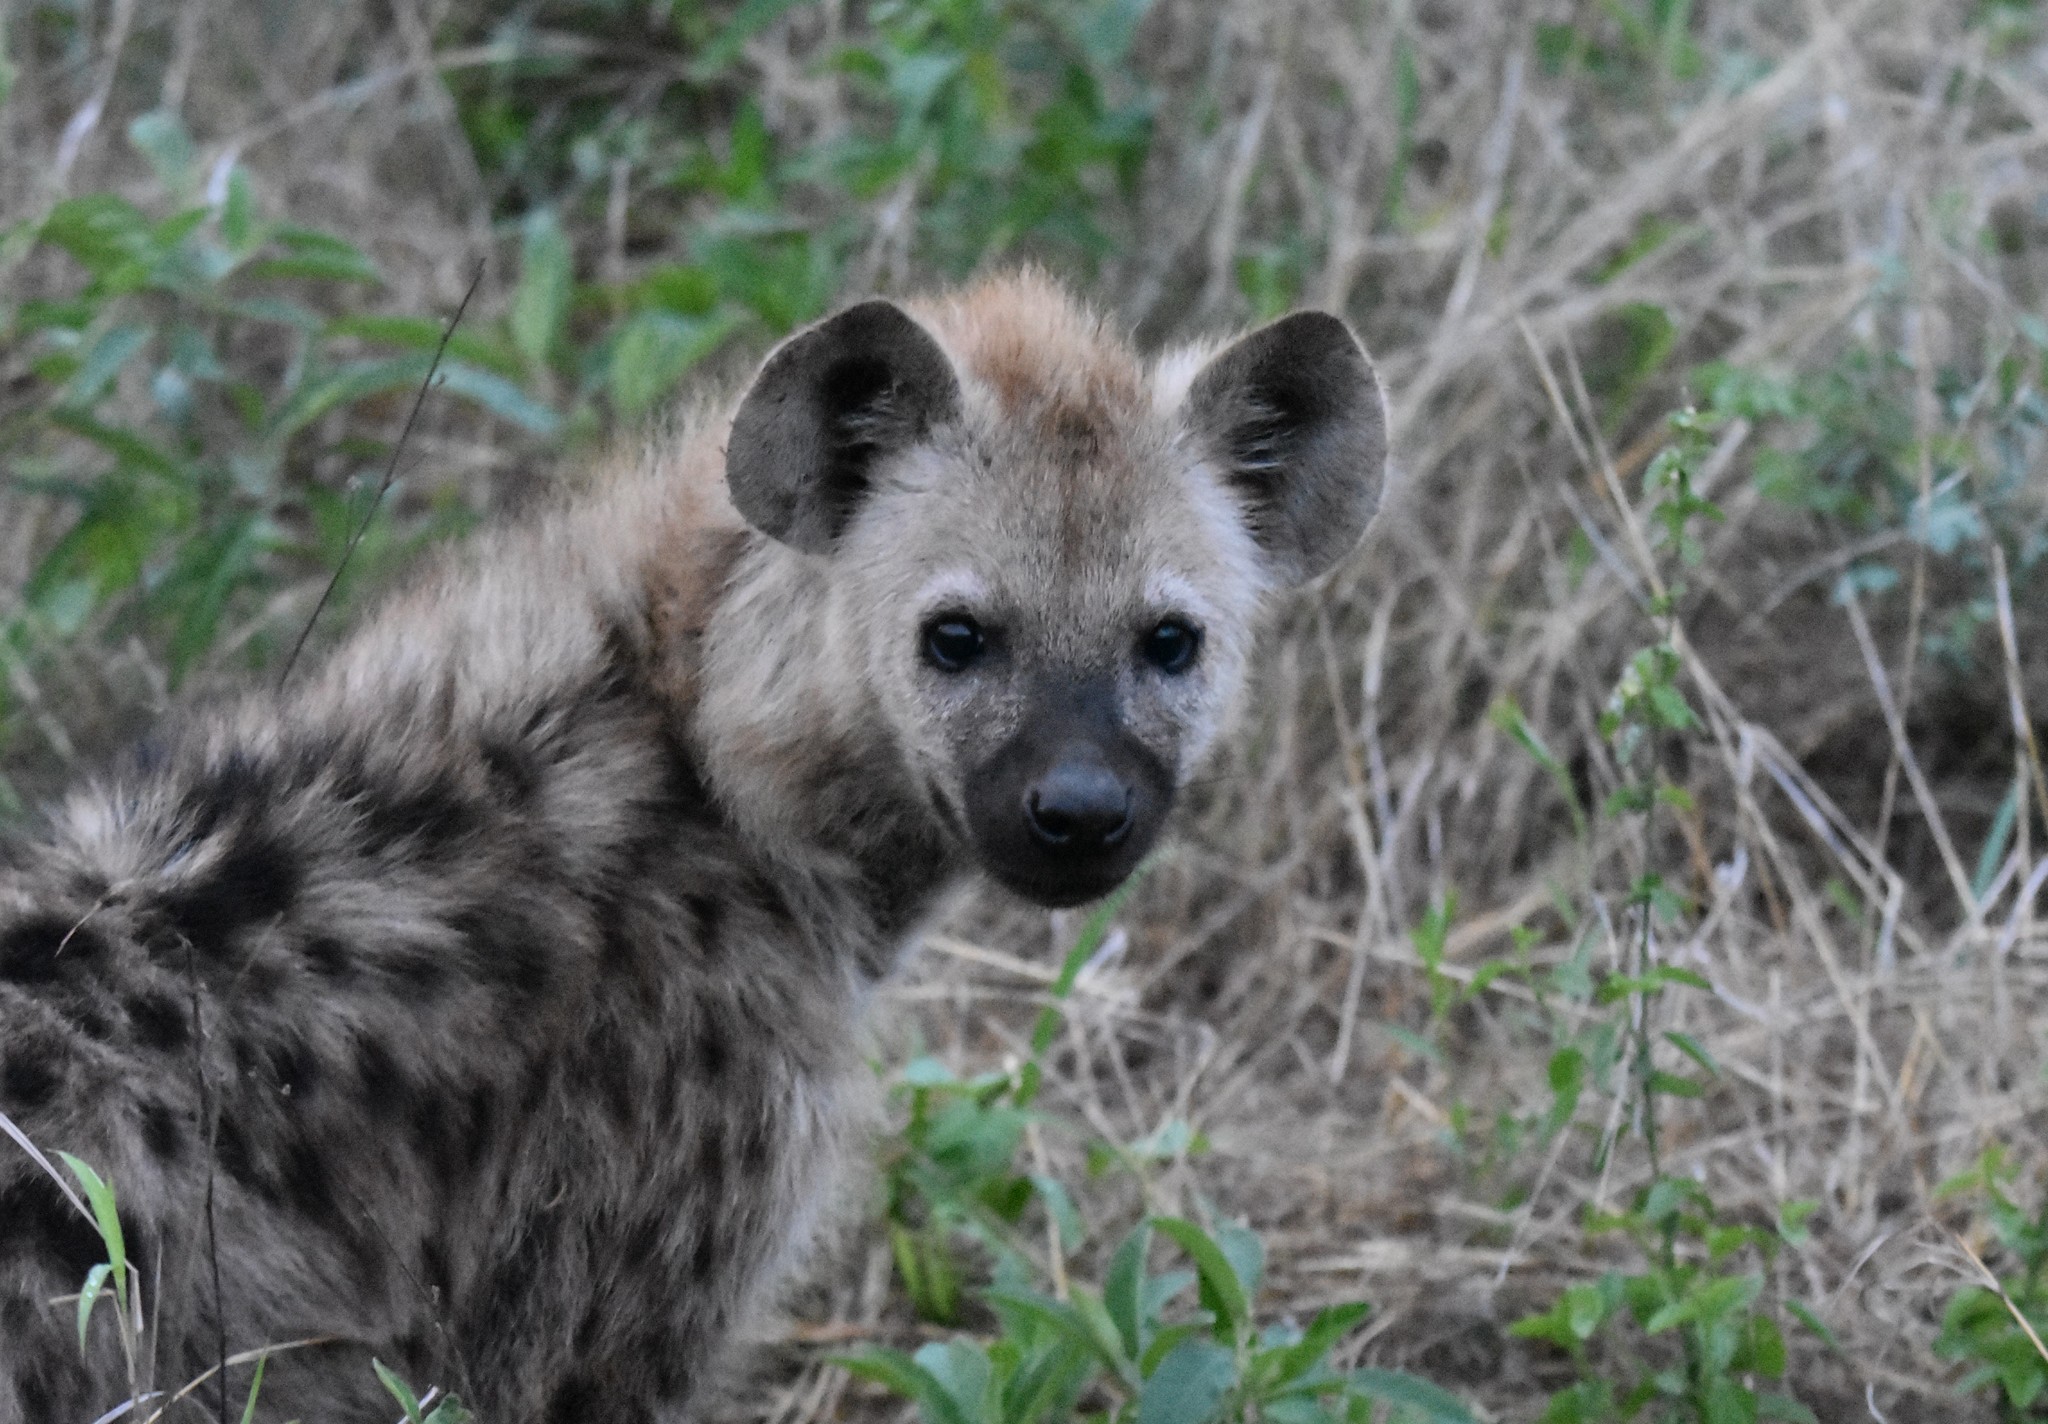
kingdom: Animalia
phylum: Chordata
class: Mammalia
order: Carnivora
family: Hyaenidae
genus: Crocuta
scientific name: Crocuta crocuta
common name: Spotted hyaena
